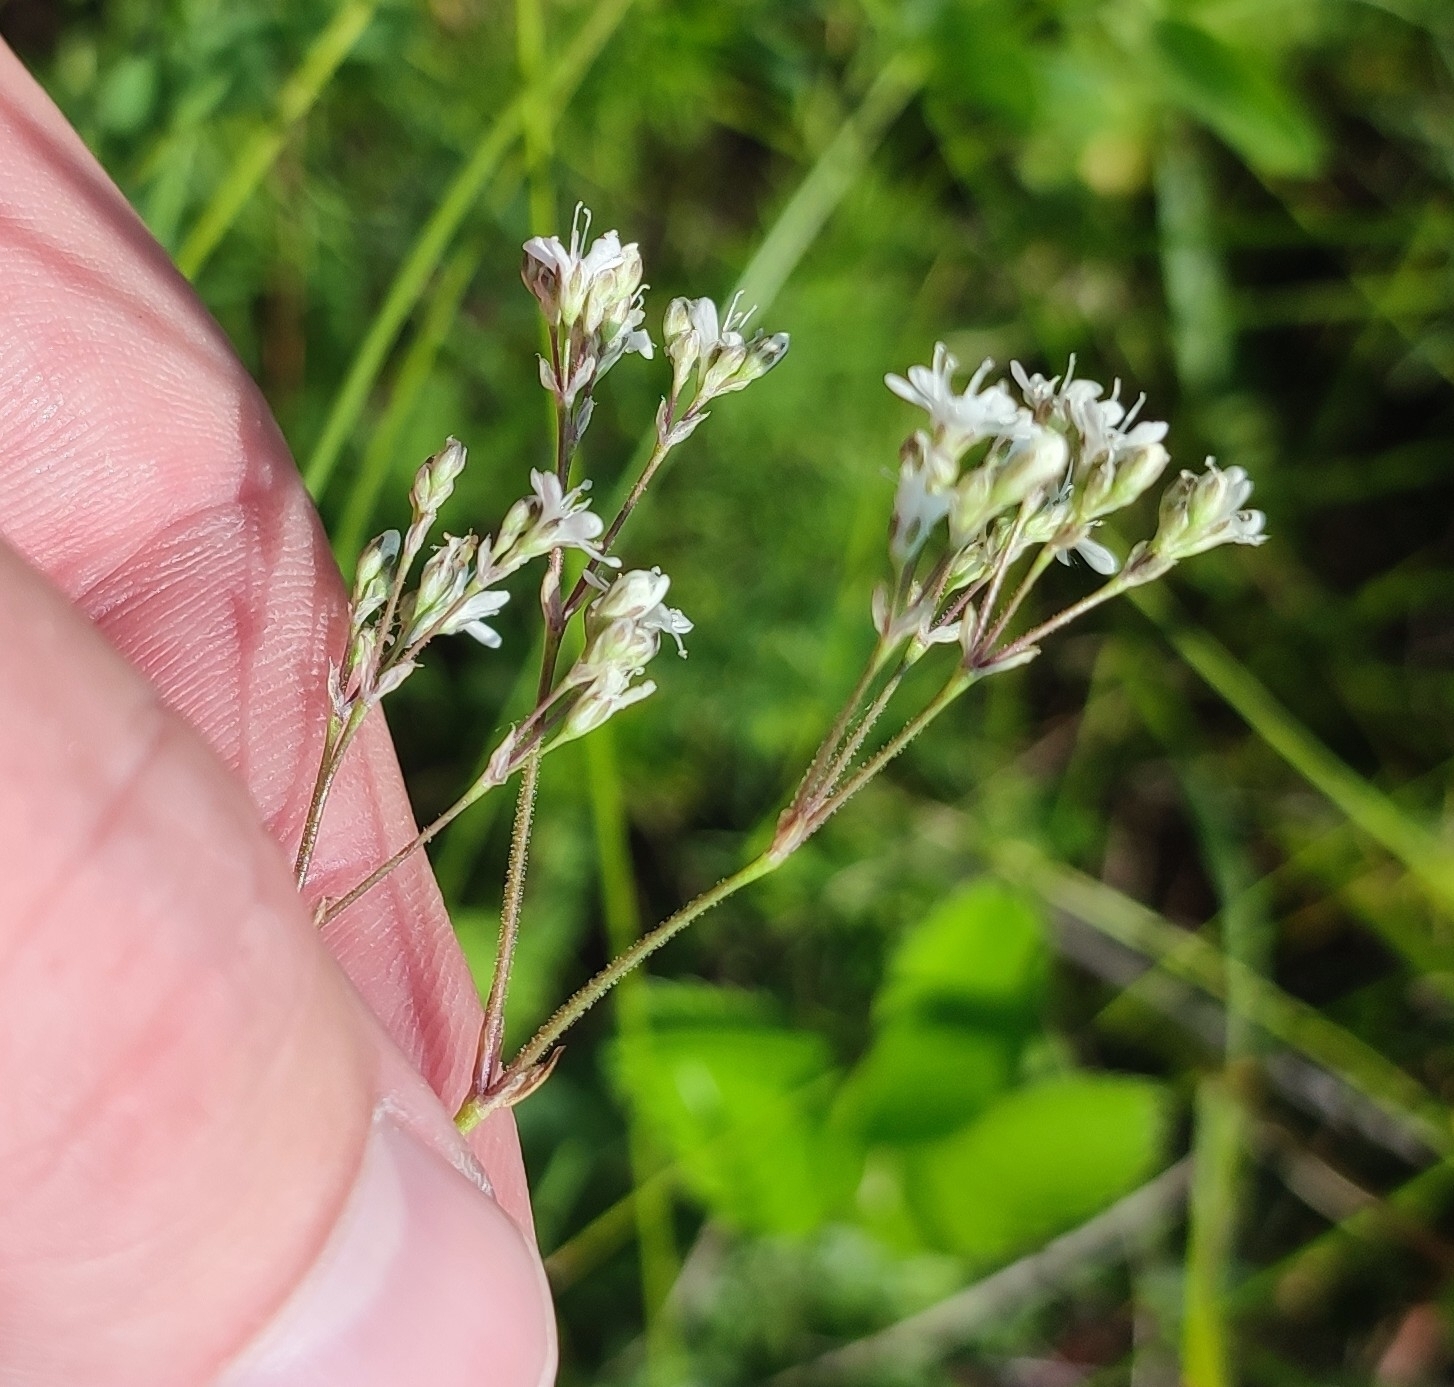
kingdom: Plantae
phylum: Tracheophyta
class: Magnoliopsida
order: Caryophyllales
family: Caryophyllaceae
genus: Gypsophila
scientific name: Gypsophila altissima
